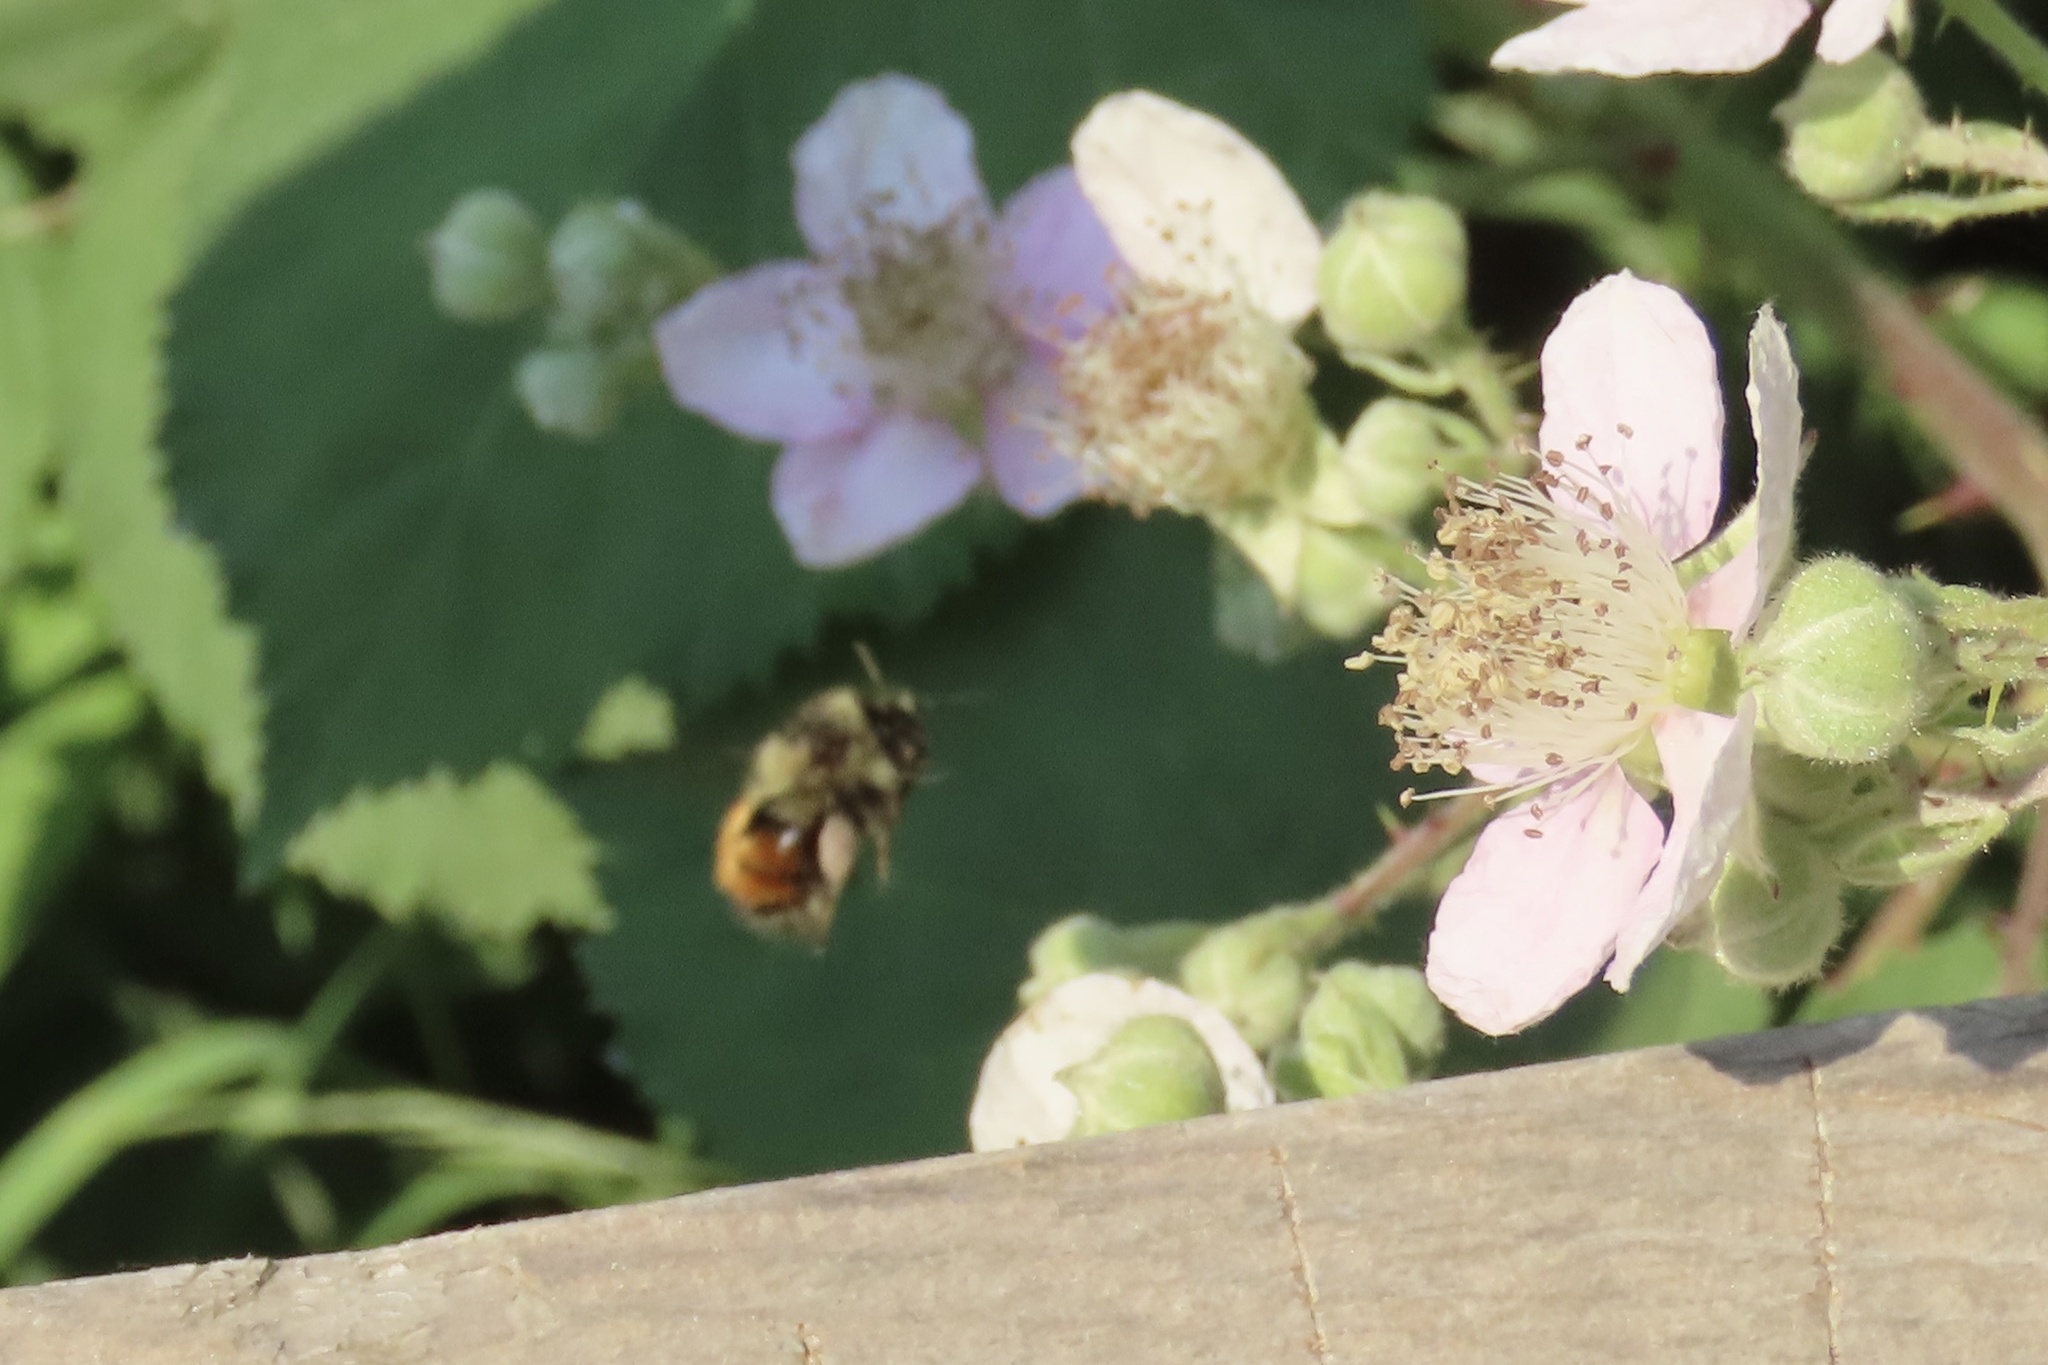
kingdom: Animalia
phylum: Arthropoda
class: Insecta
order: Hymenoptera
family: Apidae
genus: Bombus
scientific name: Bombus melanopygus
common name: Black tail bumble bee
